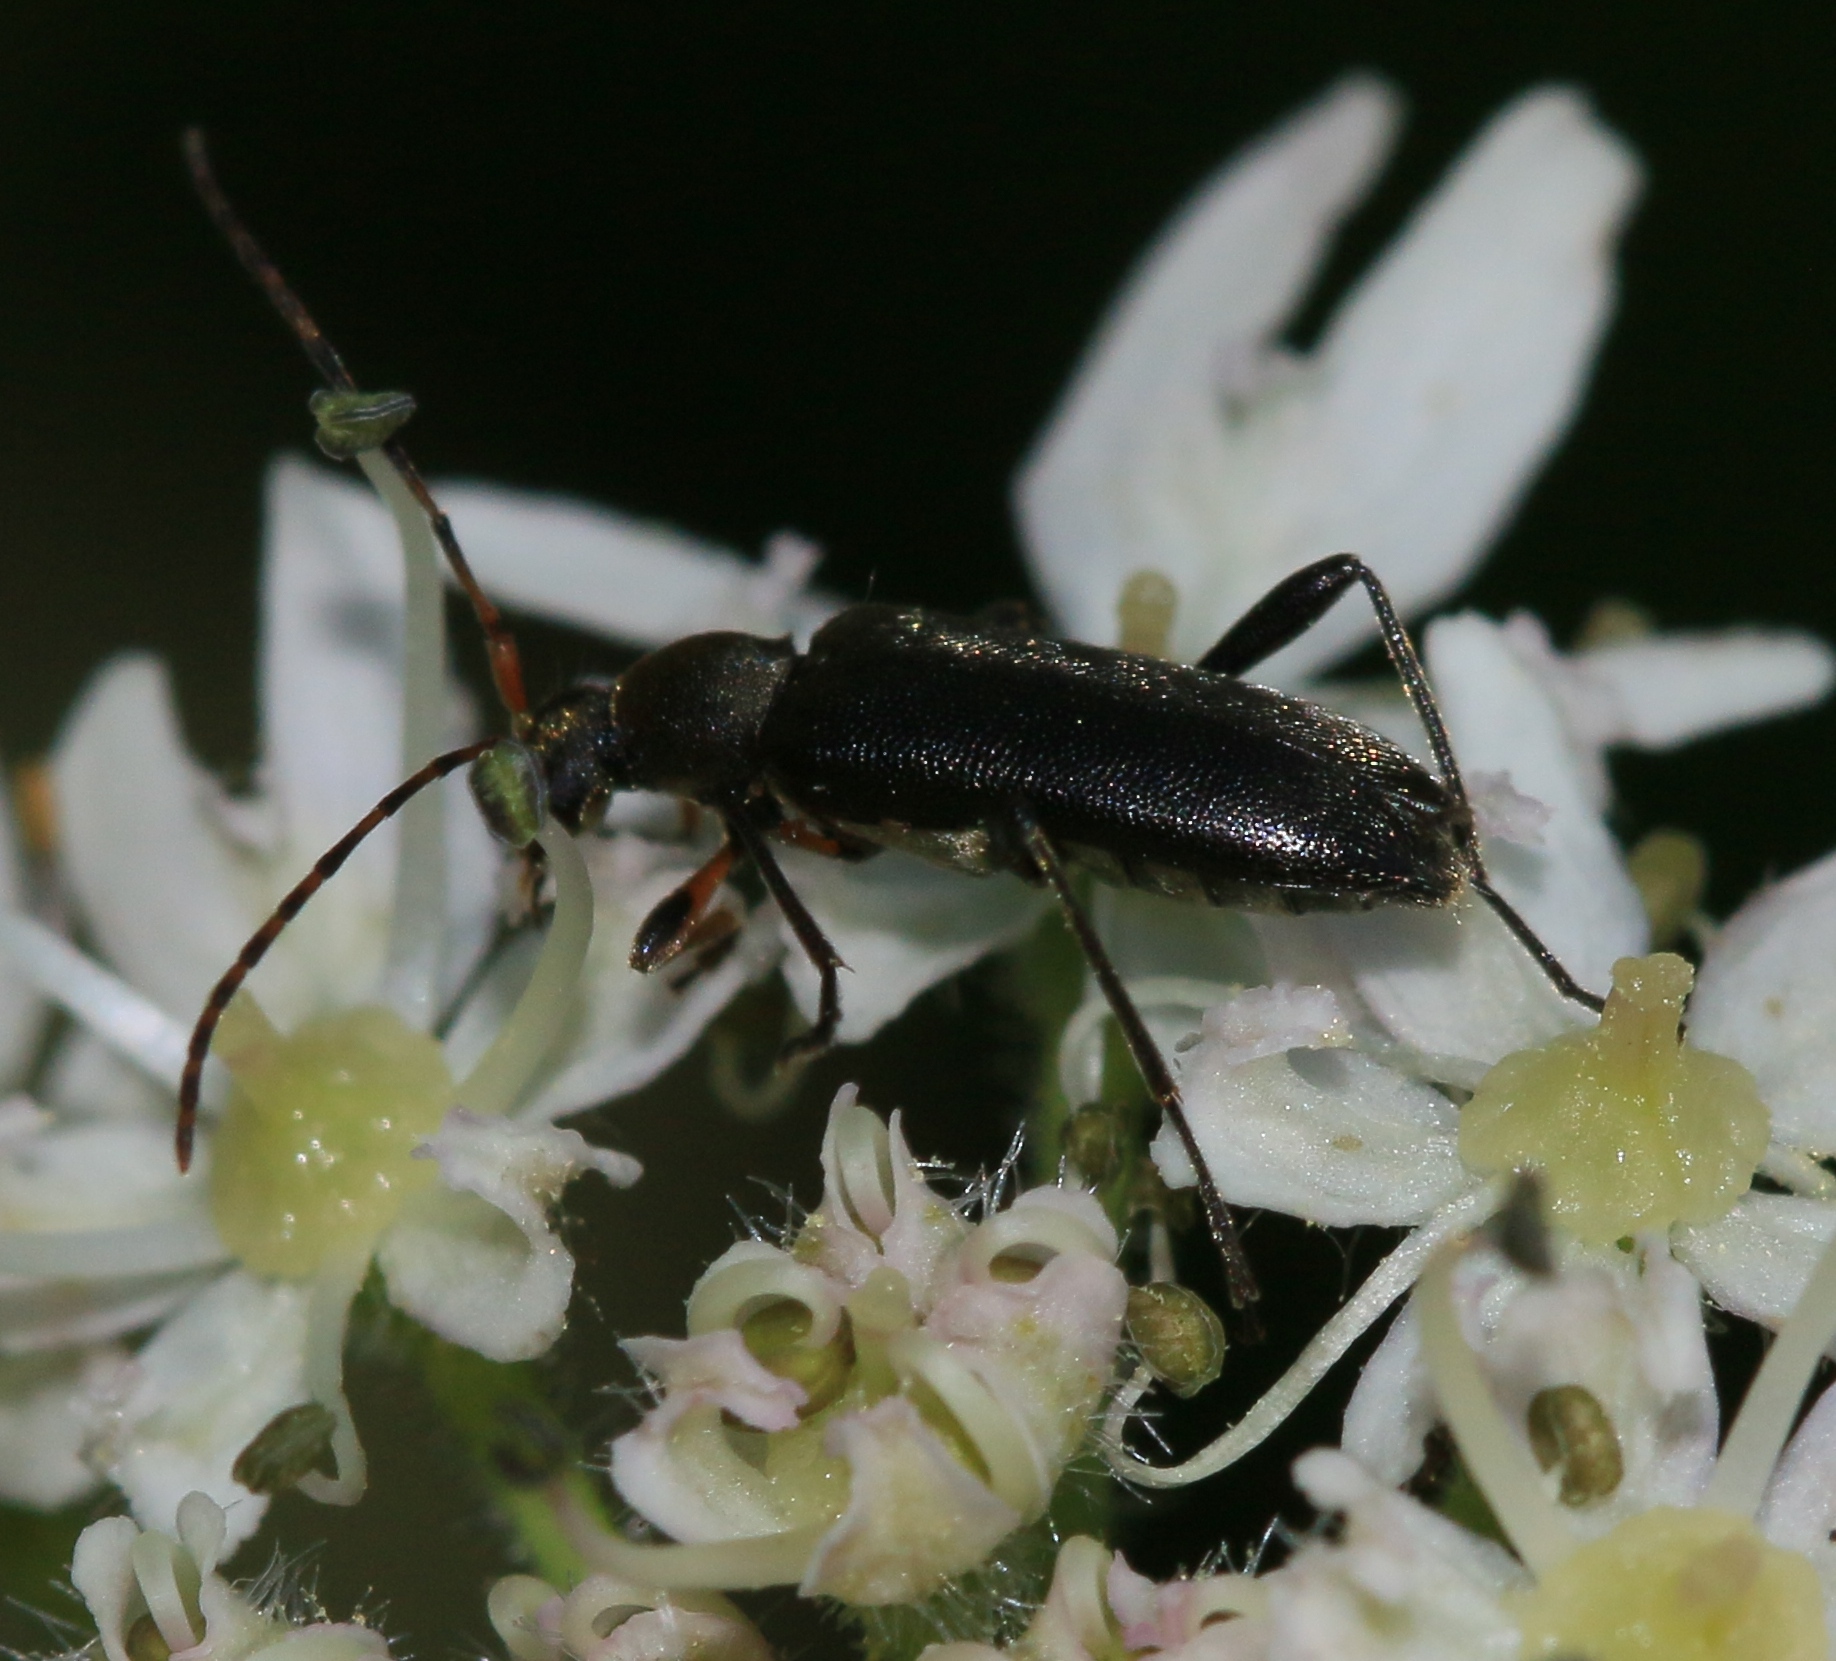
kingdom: Animalia
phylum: Arthropoda
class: Insecta
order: Coleoptera
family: Cerambycidae
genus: Grammoptera
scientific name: Grammoptera ruficornis
